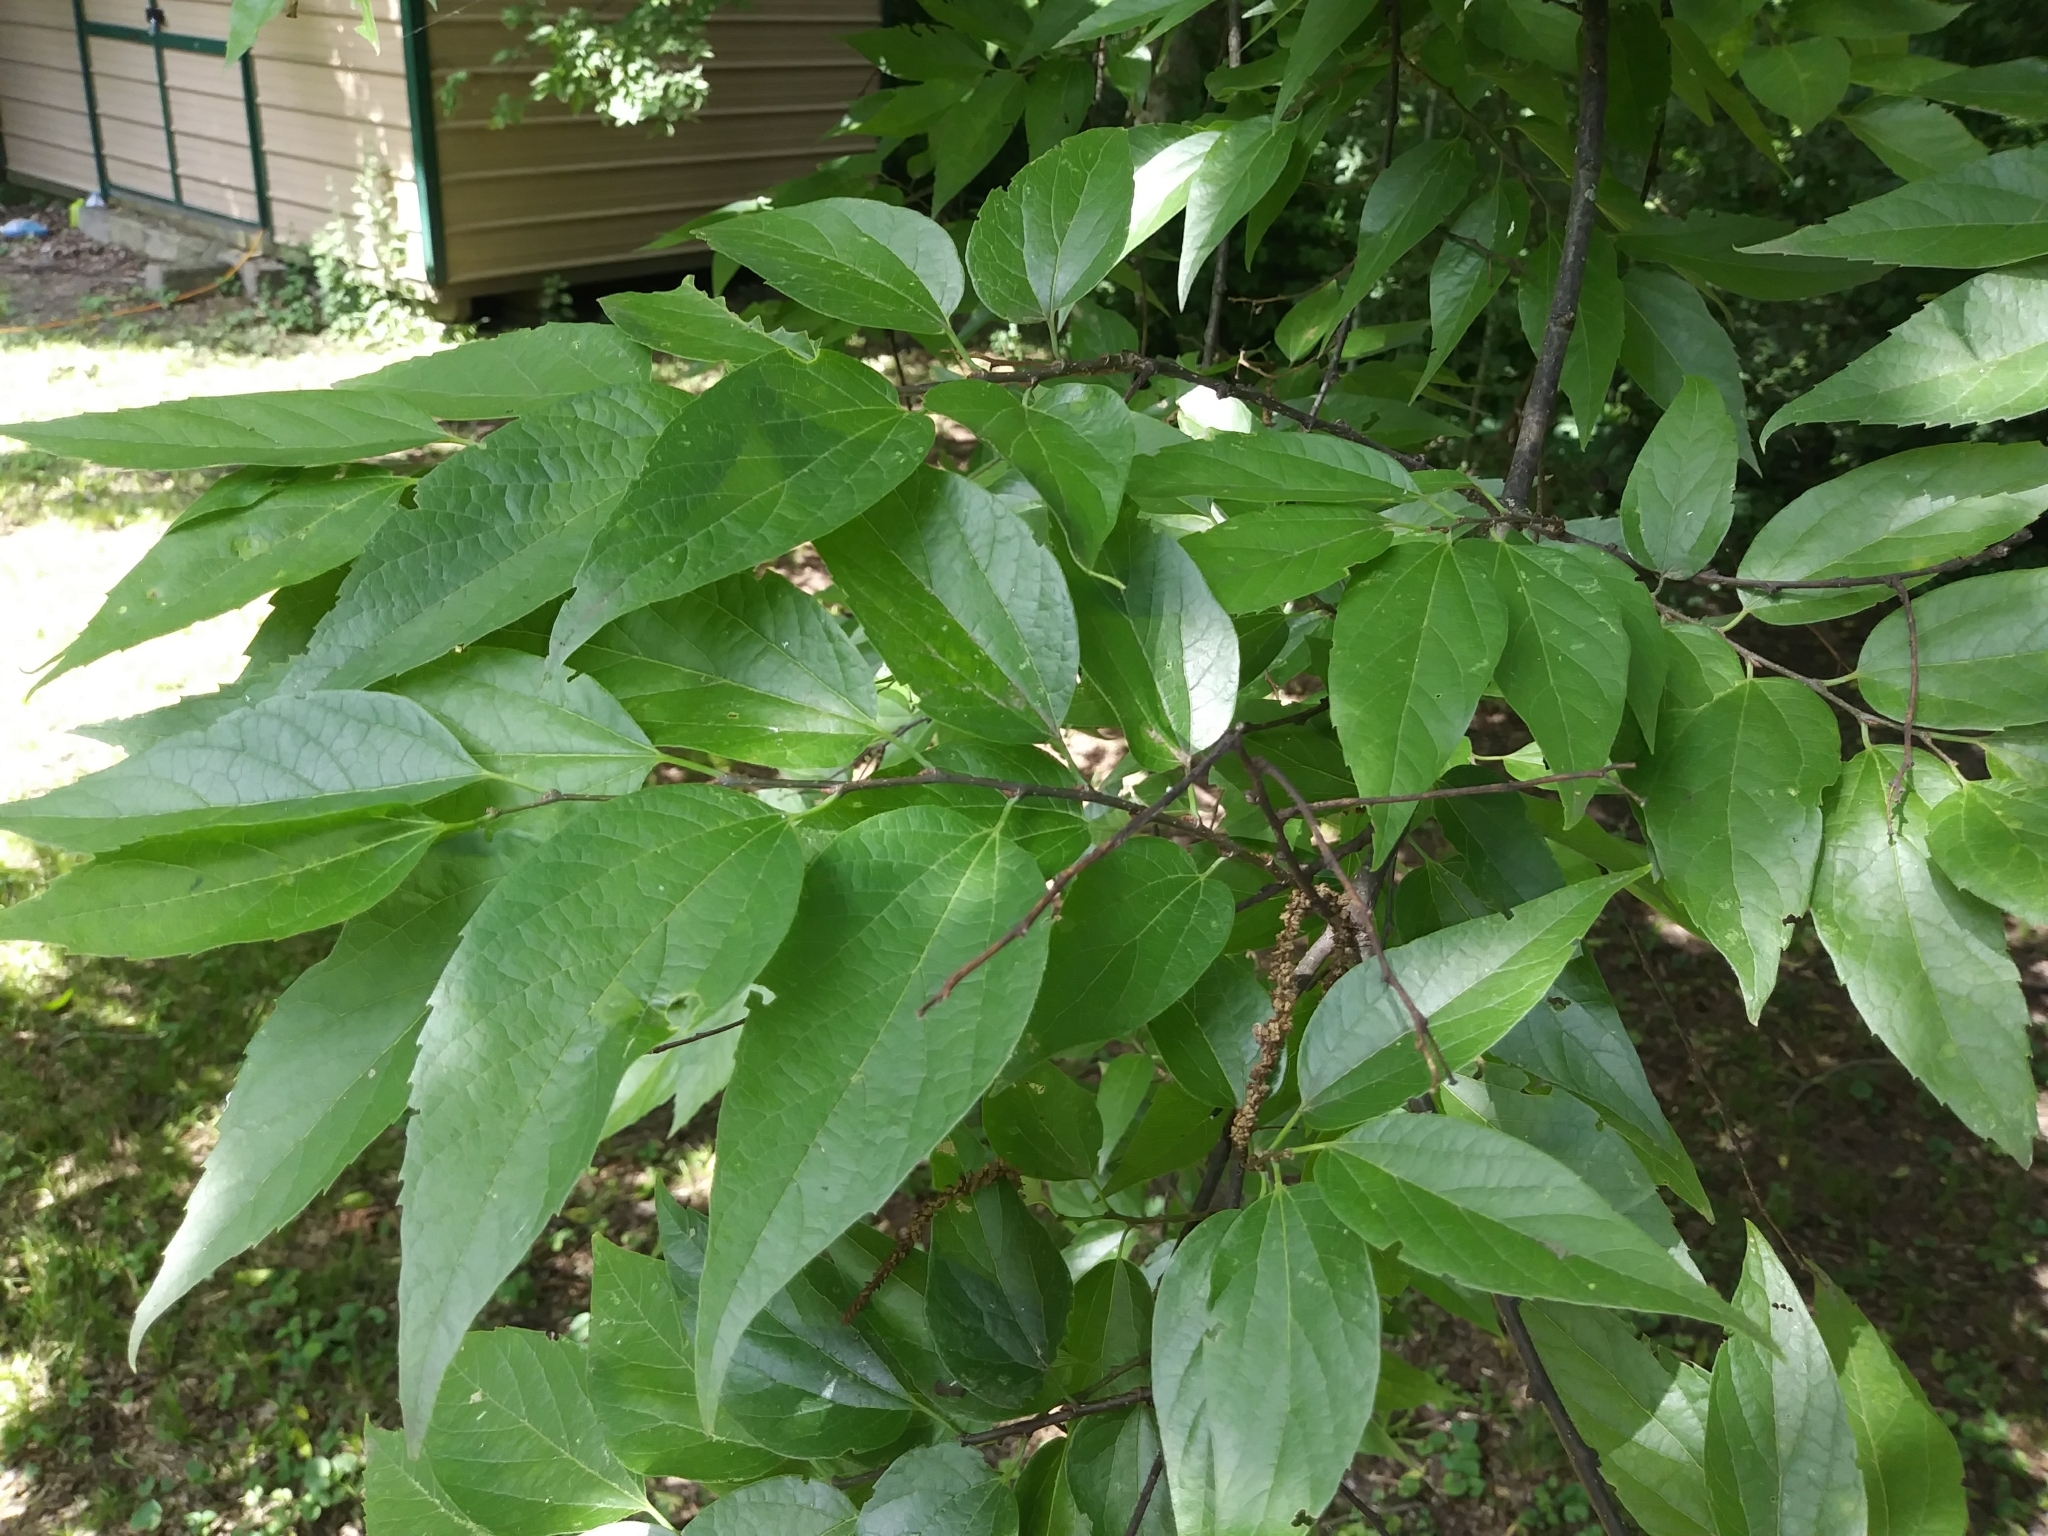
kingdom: Plantae
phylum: Tracheophyta
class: Magnoliopsida
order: Rosales
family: Cannabaceae
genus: Celtis
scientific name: Celtis laevigata
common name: Sugarberry
